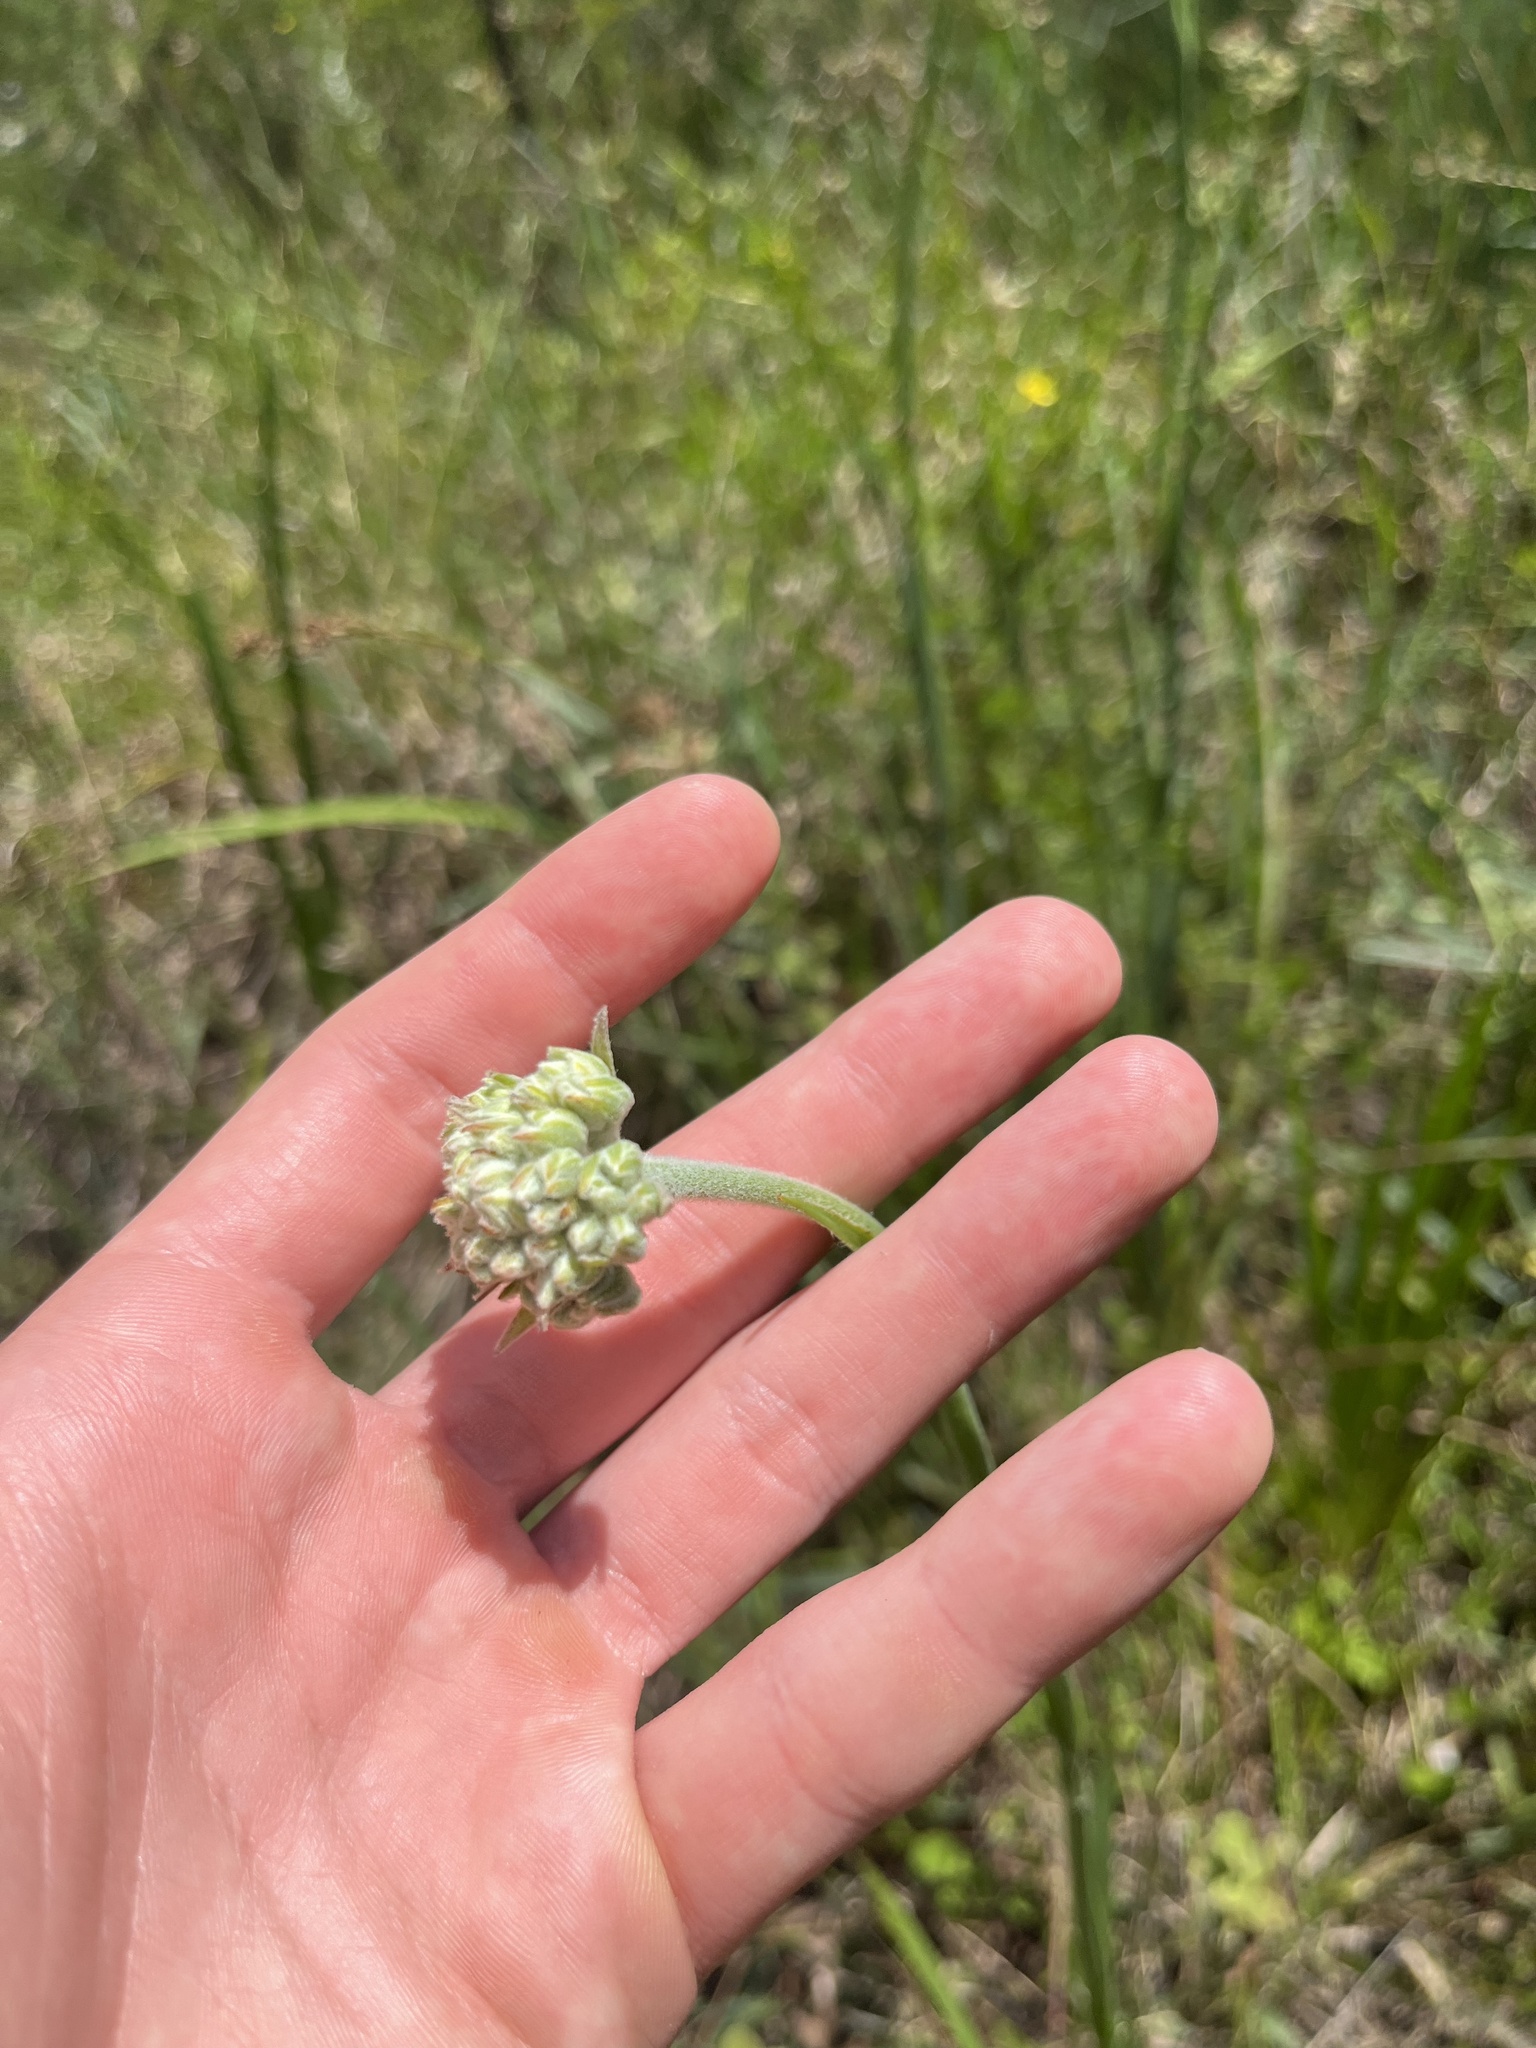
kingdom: Plantae
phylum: Tracheophyta
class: Liliopsida
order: Commelinales
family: Haemodoraceae
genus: Lachnanthes
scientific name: Lachnanthes caroliana
